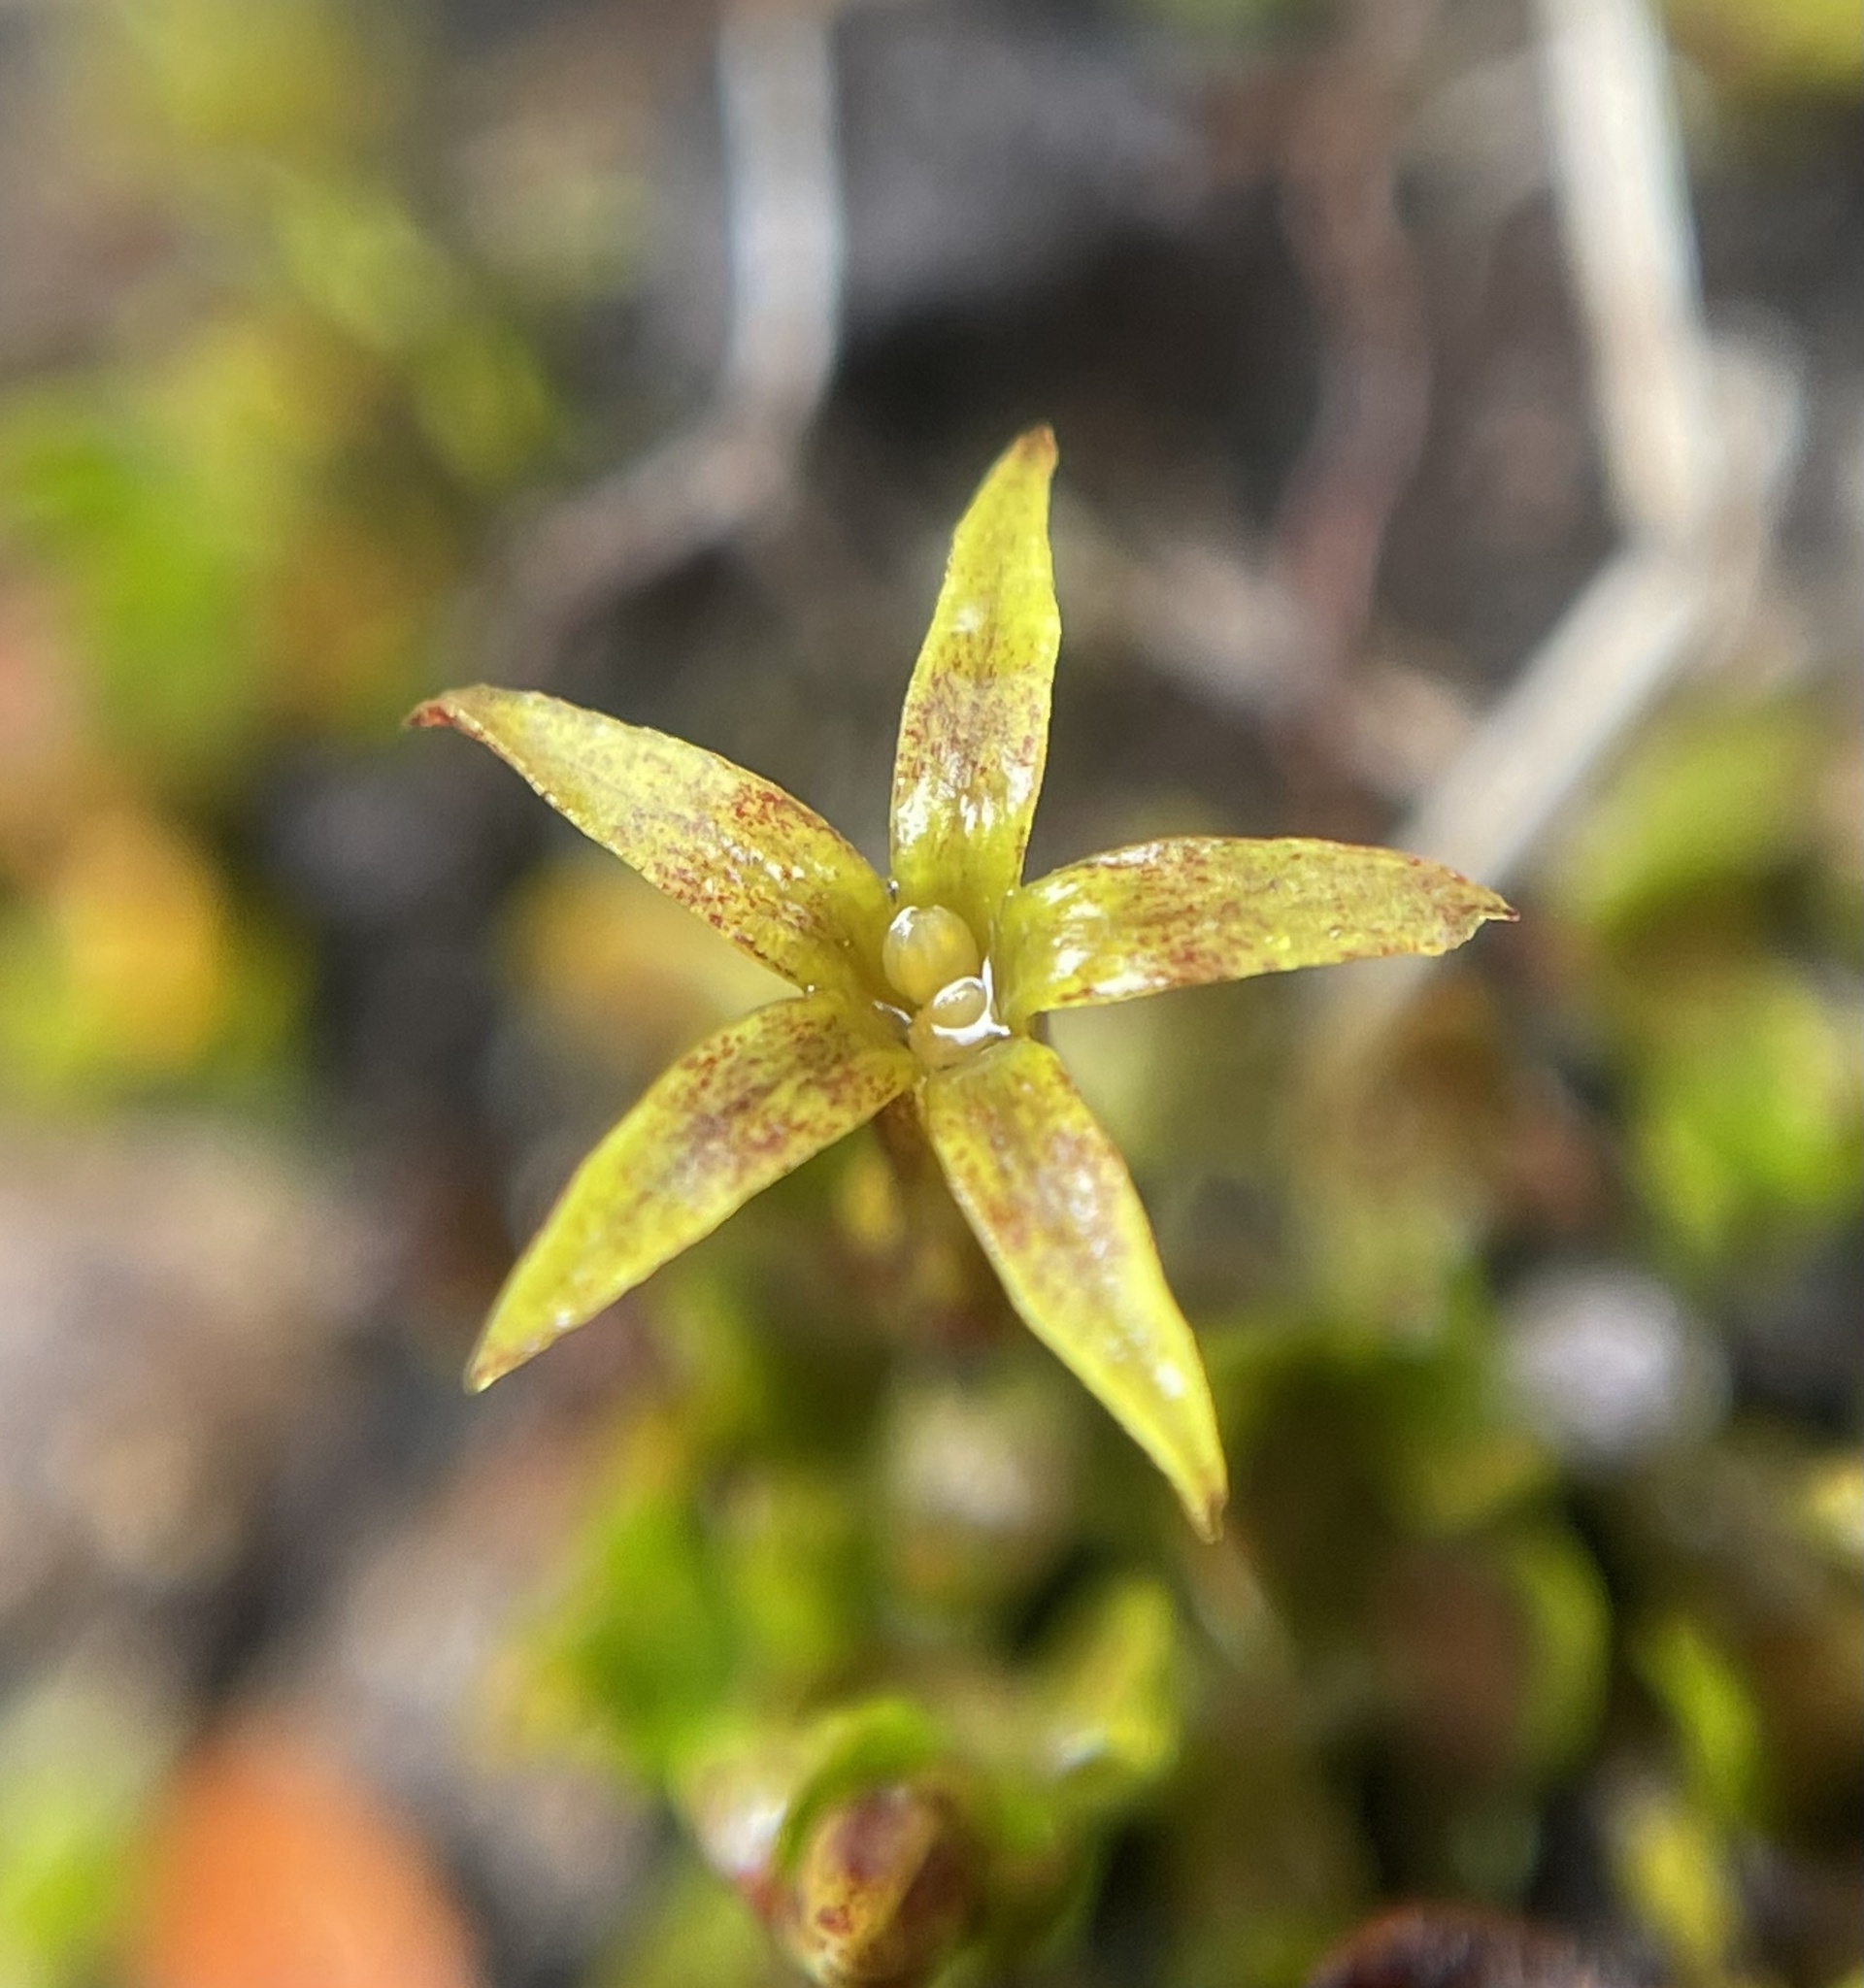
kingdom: Plantae
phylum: Tracheophyta
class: Magnoliopsida
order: Celastrales
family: Celastraceae
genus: Stackhousia
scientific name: Stackhousia minima
